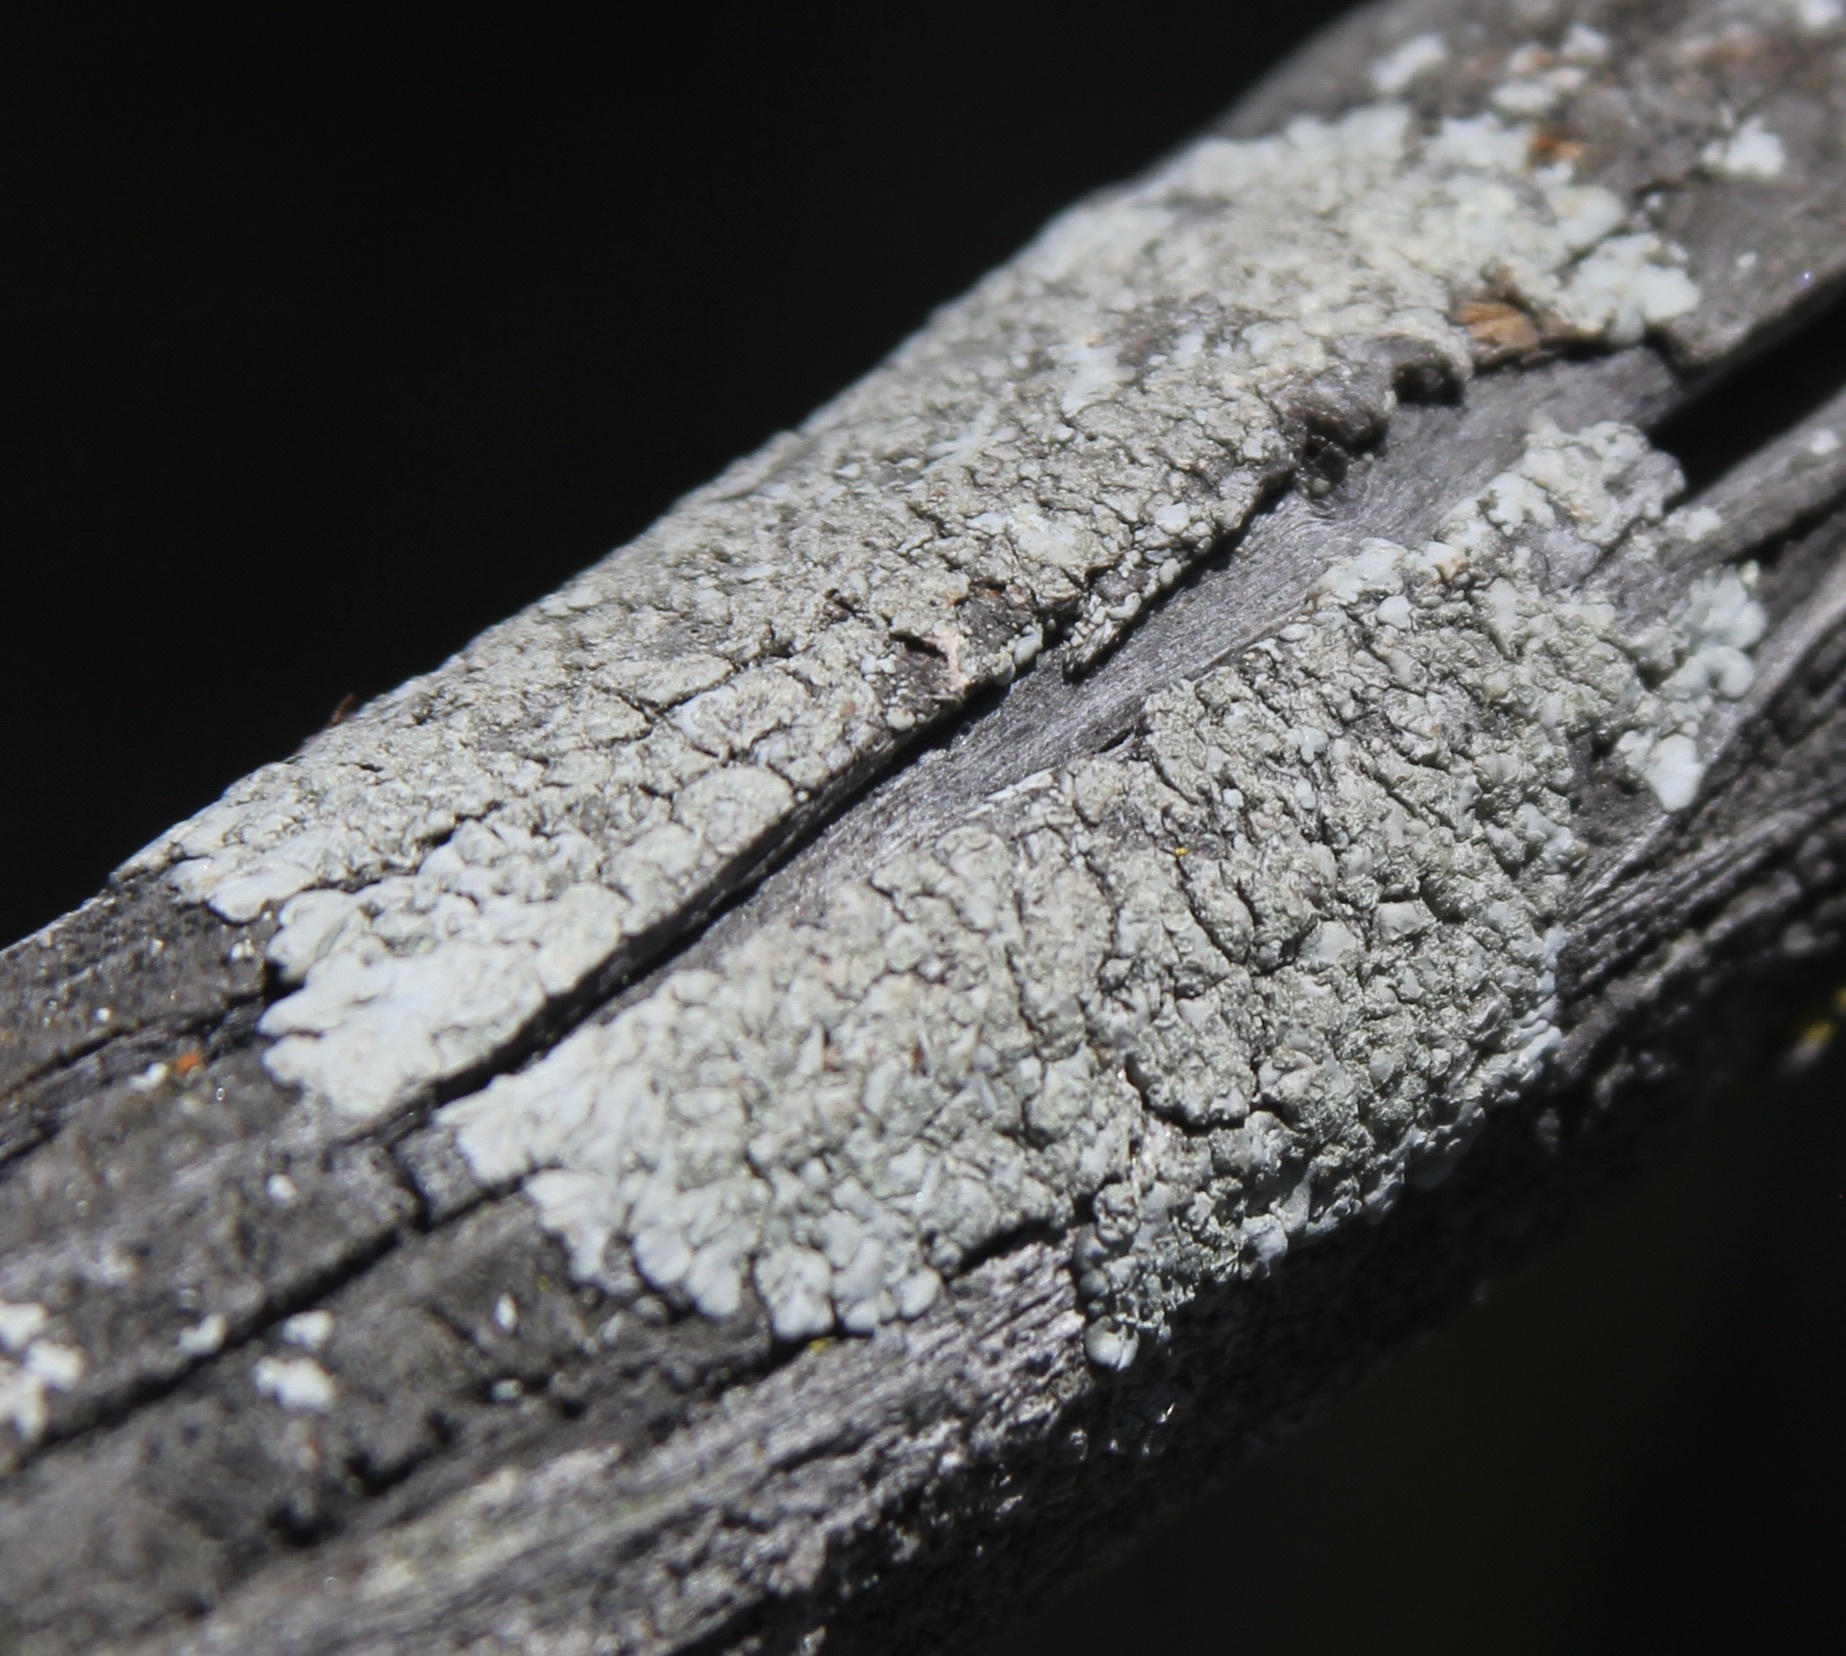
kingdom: Fungi
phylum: Ascomycota
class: Lecanoromycetes
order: Caliciales
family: Caliciaceae
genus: Diploicia
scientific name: Diploicia canescens
